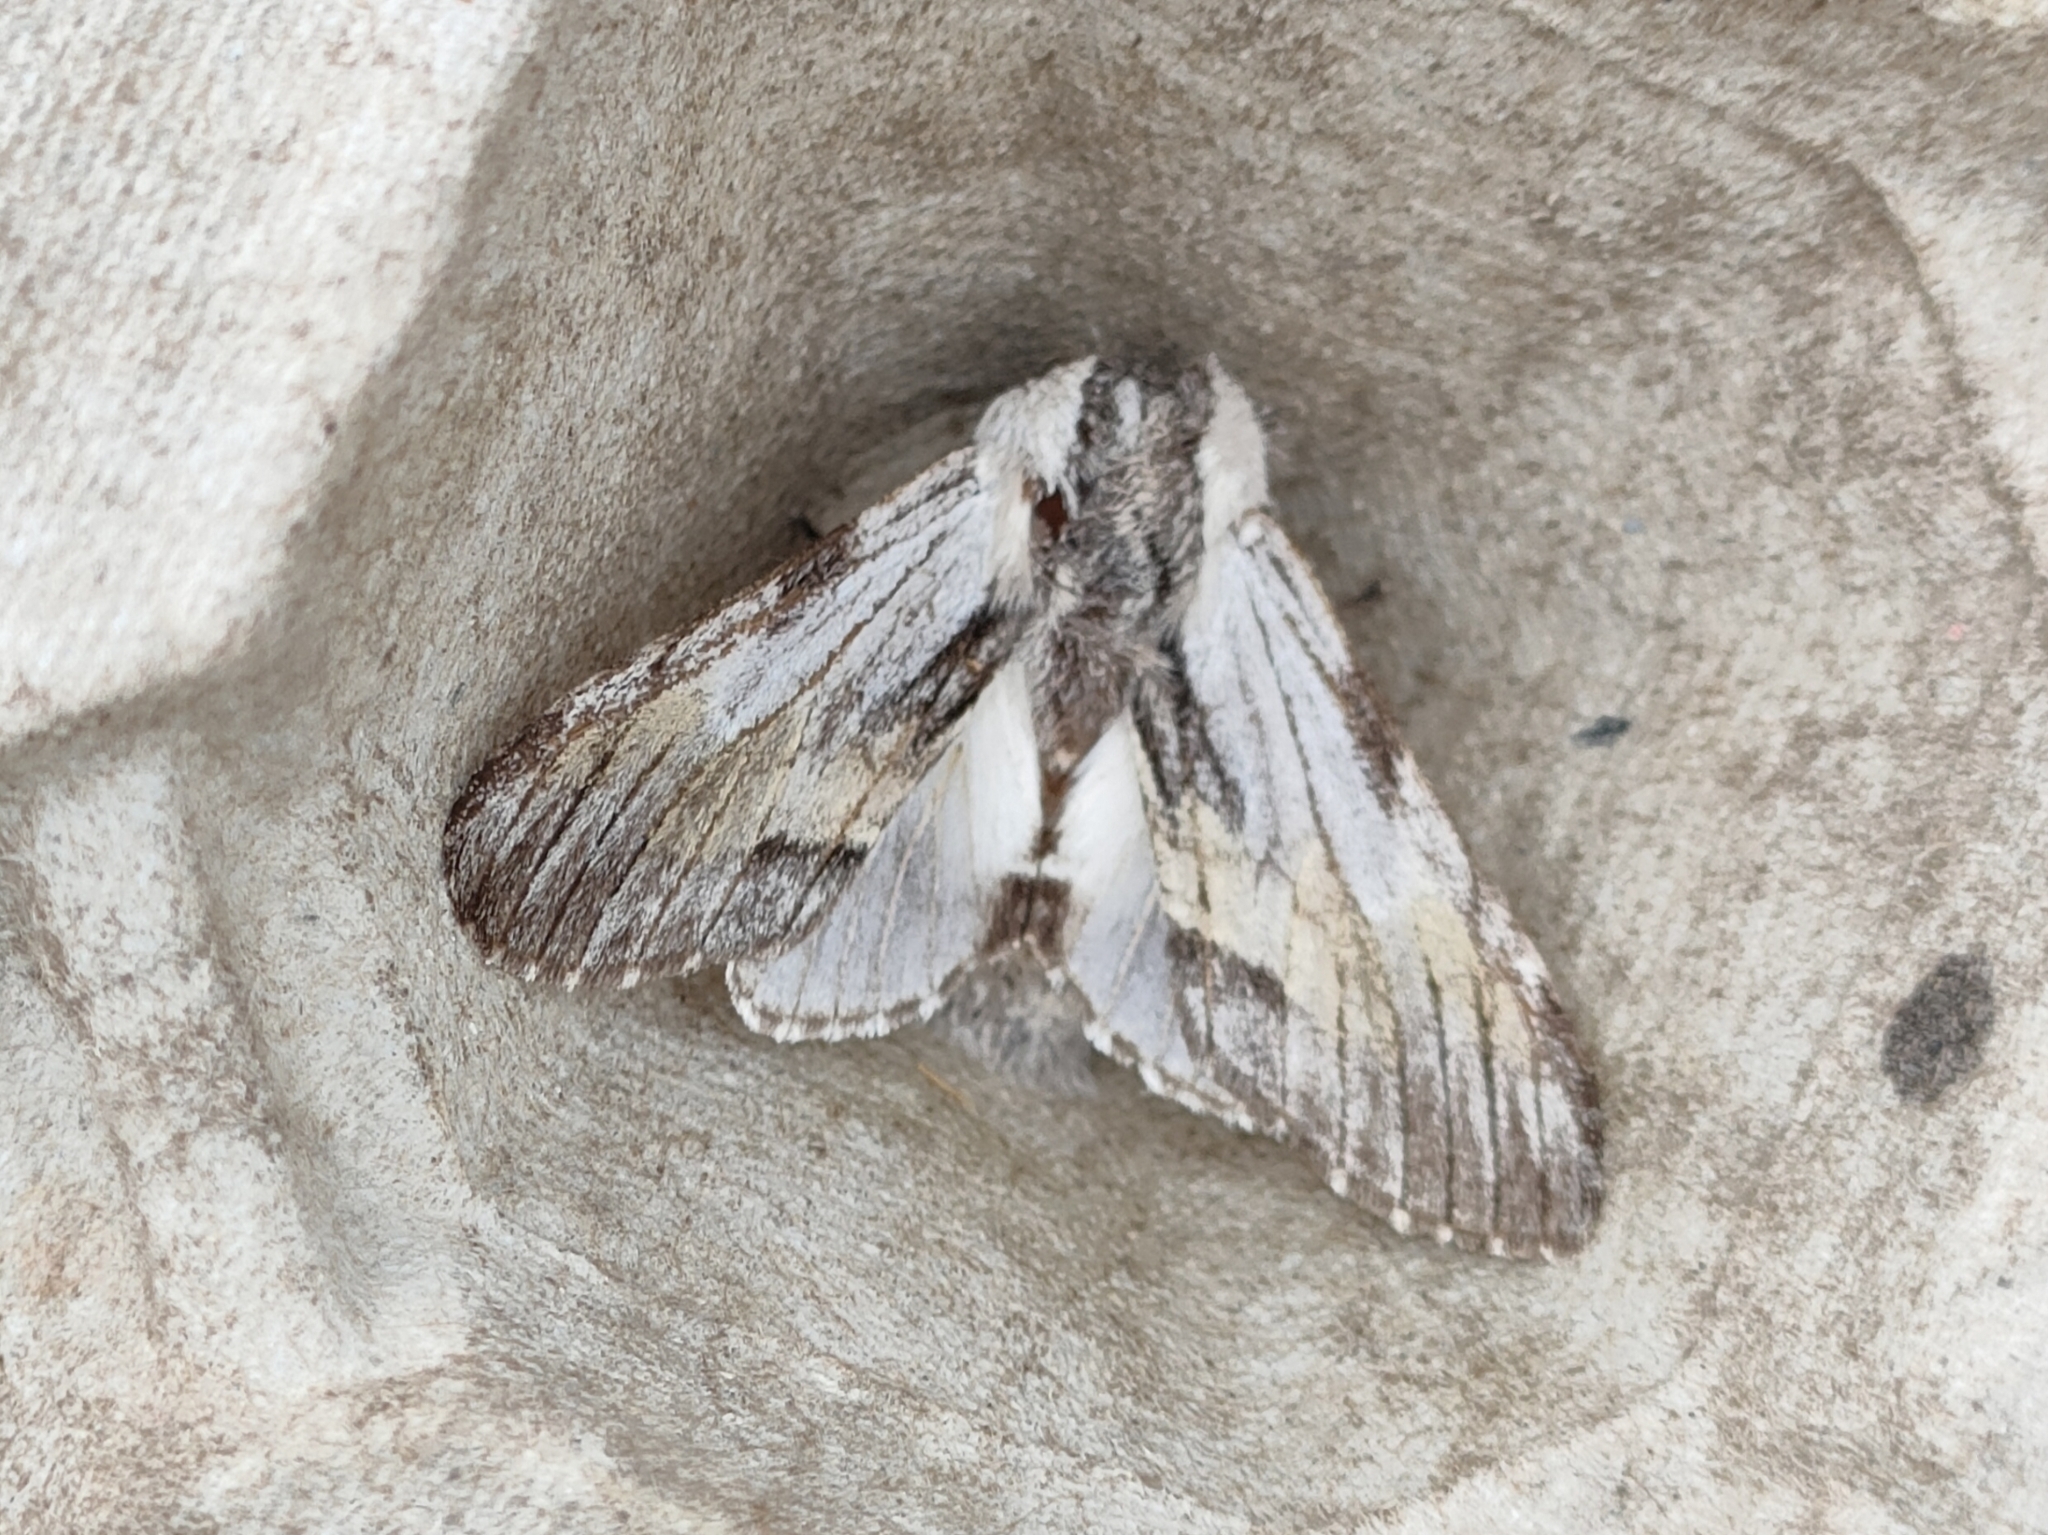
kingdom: Animalia
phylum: Arthropoda
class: Insecta
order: Lepidoptera
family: Notodontidae
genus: Harpyia
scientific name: Harpyia milhauseri
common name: Tawny prominent
